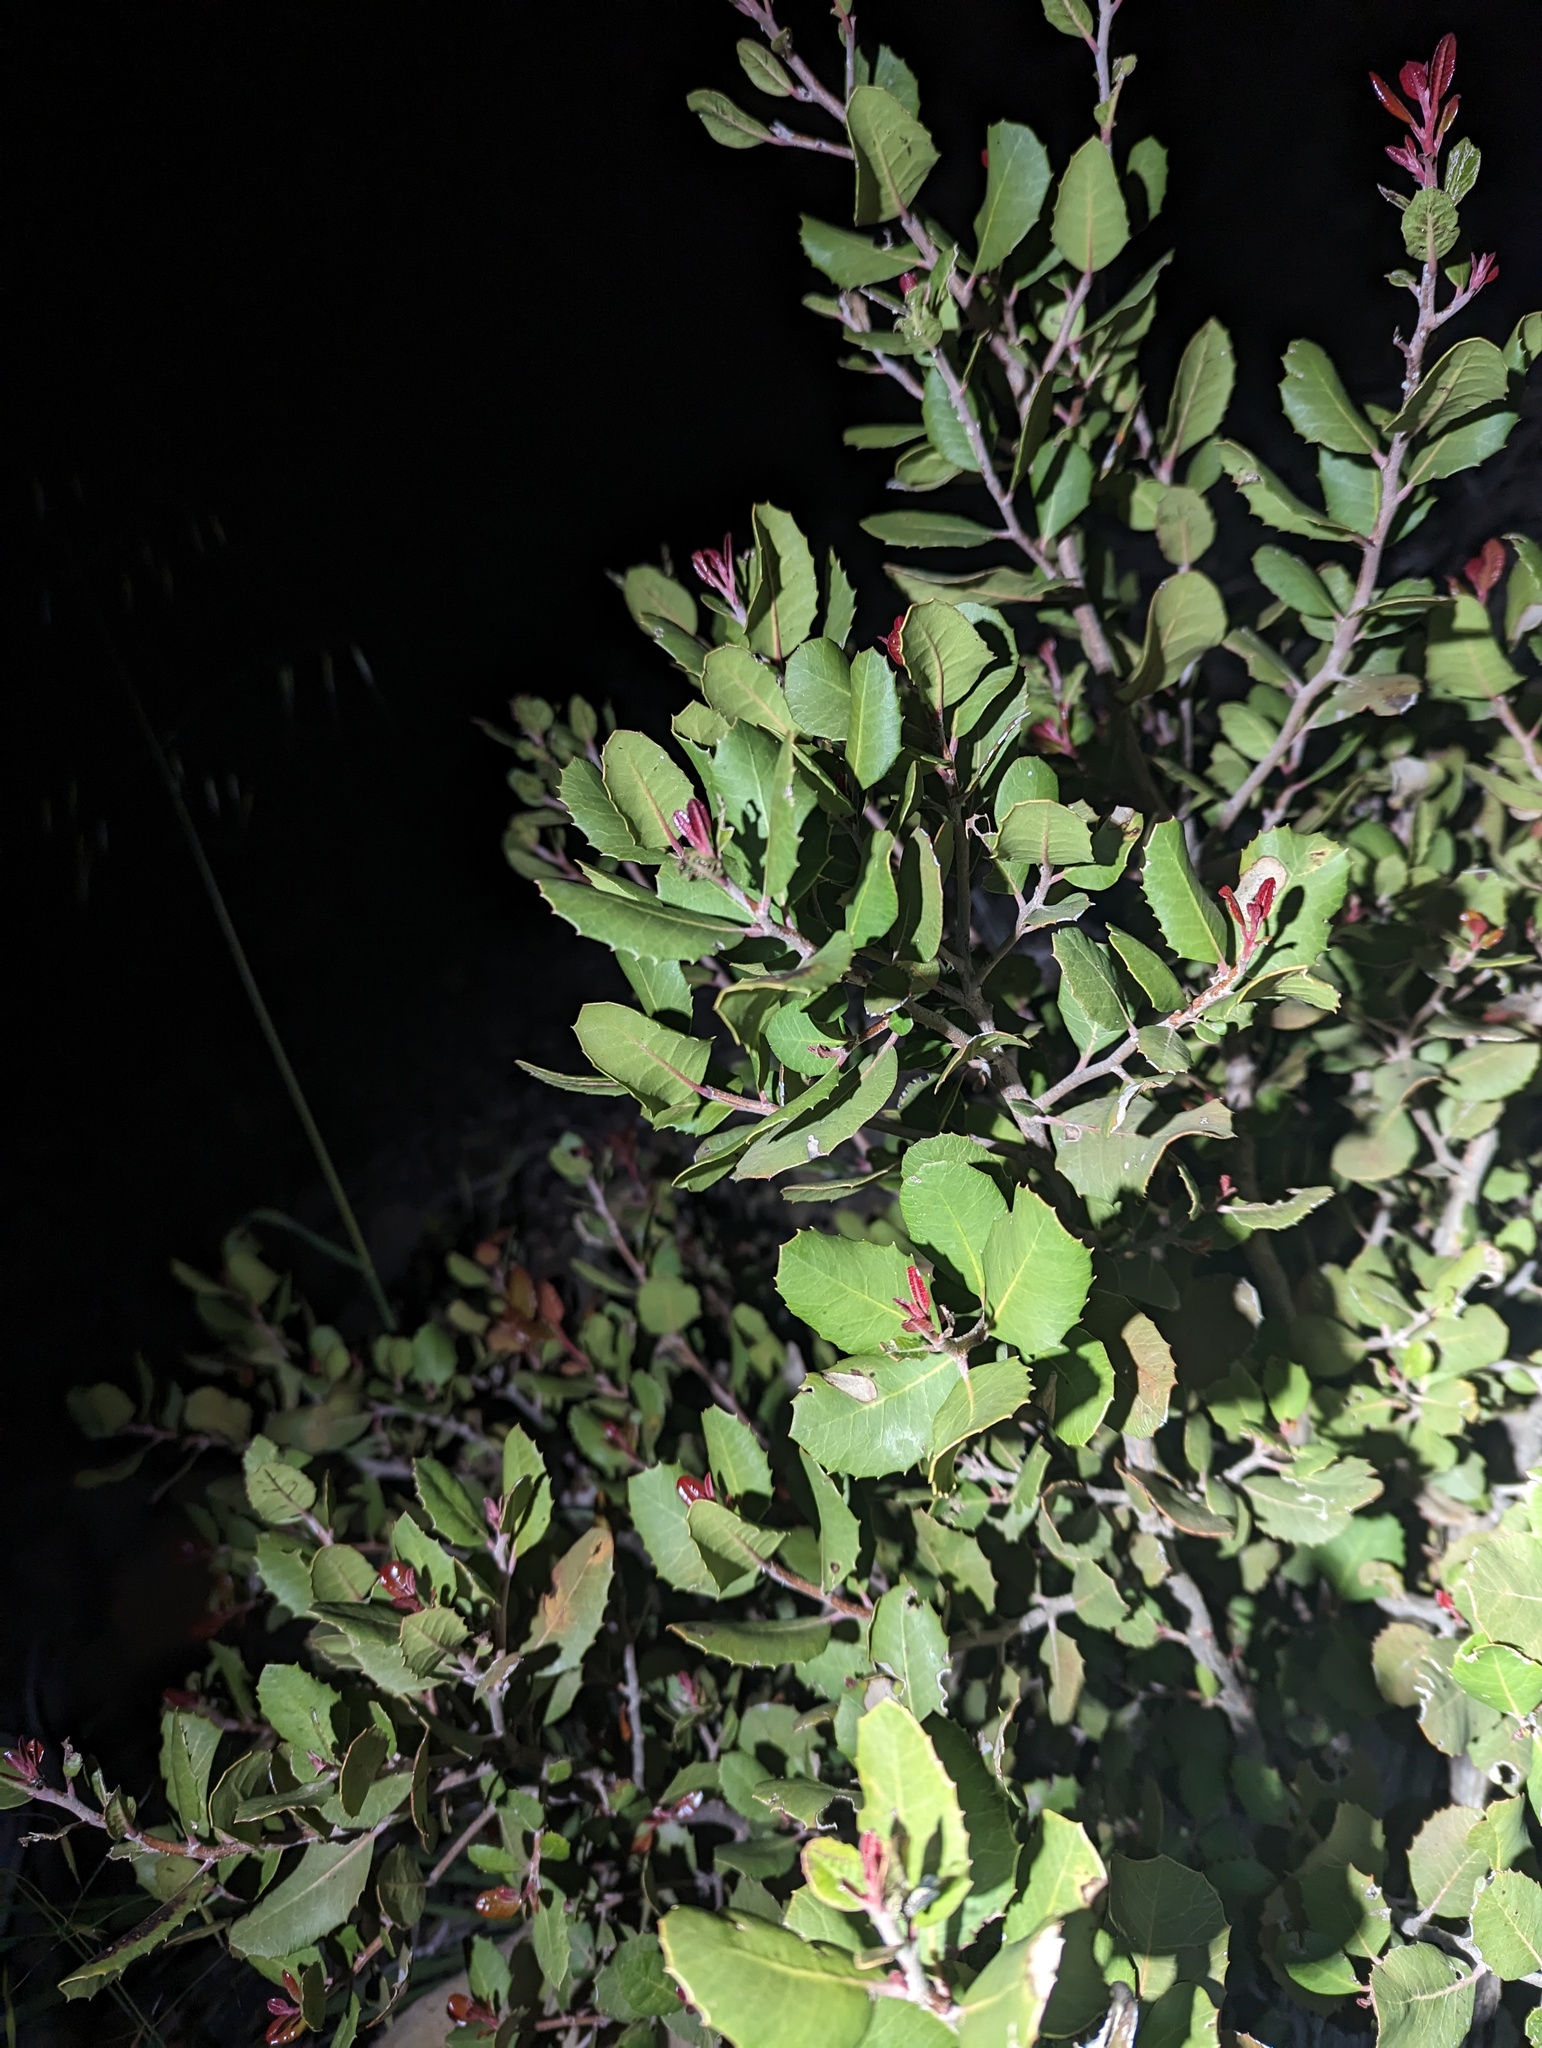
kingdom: Plantae
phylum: Tracheophyta
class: Magnoliopsida
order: Sapindales
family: Anacardiaceae
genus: Rhus
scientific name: Rhus integrifolia
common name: Lemonade sumac
